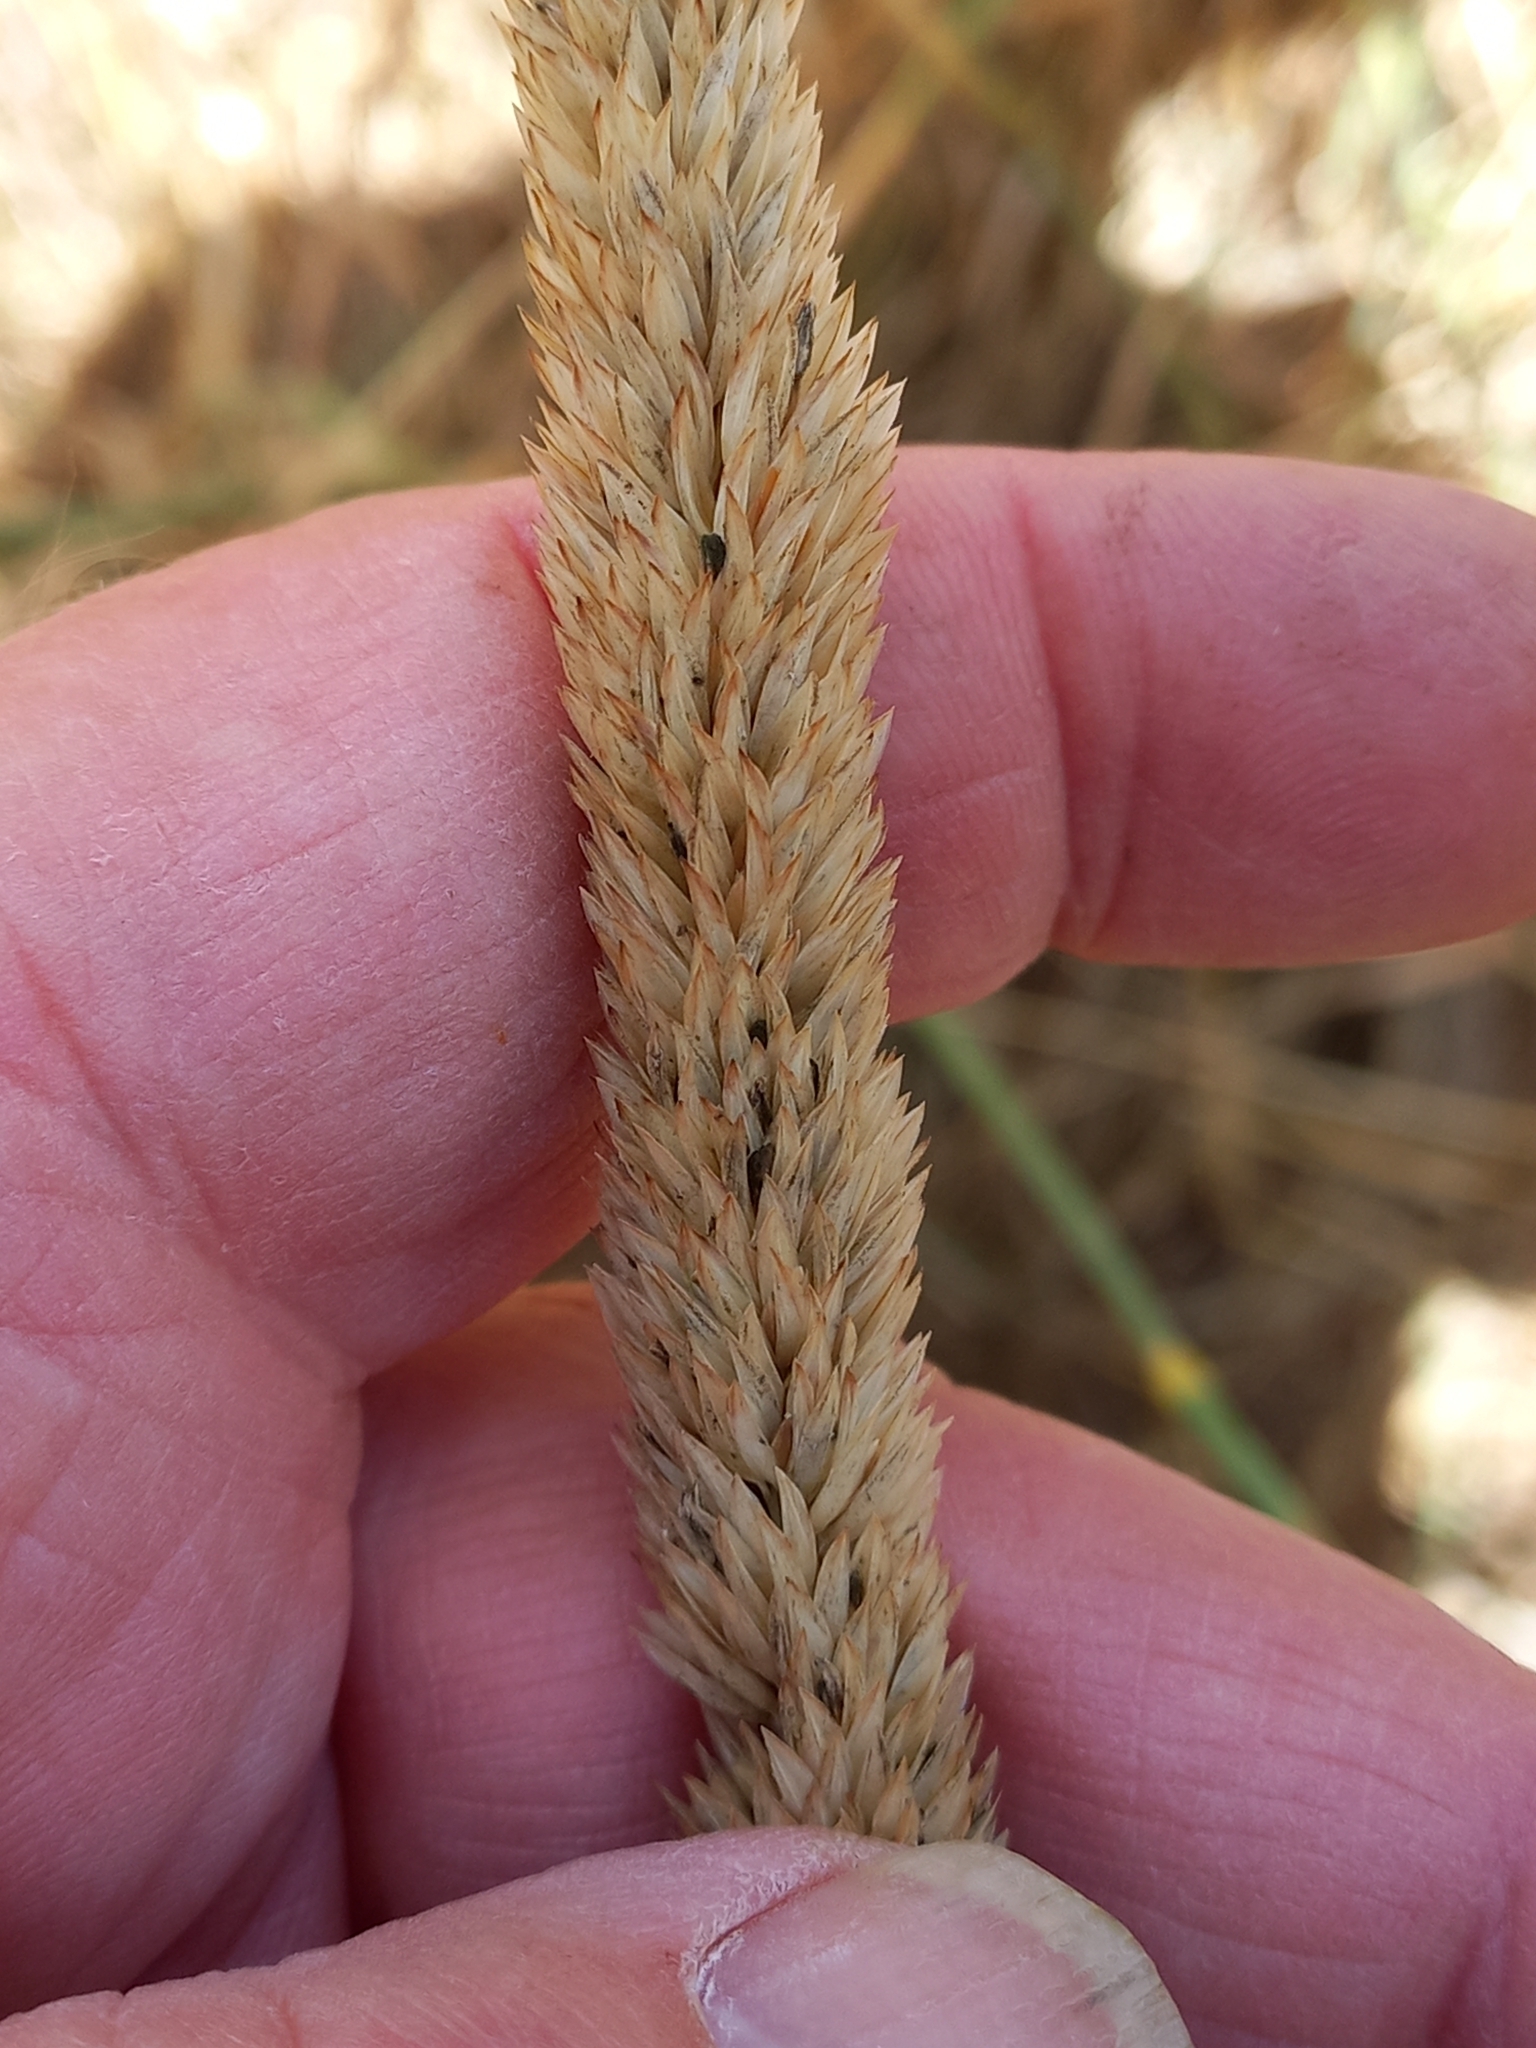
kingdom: Plantae
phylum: Tracheophyta
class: Liliopsida
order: Poales
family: Poaceae
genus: Phleum
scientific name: Phleum pratense
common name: Timothy grass
